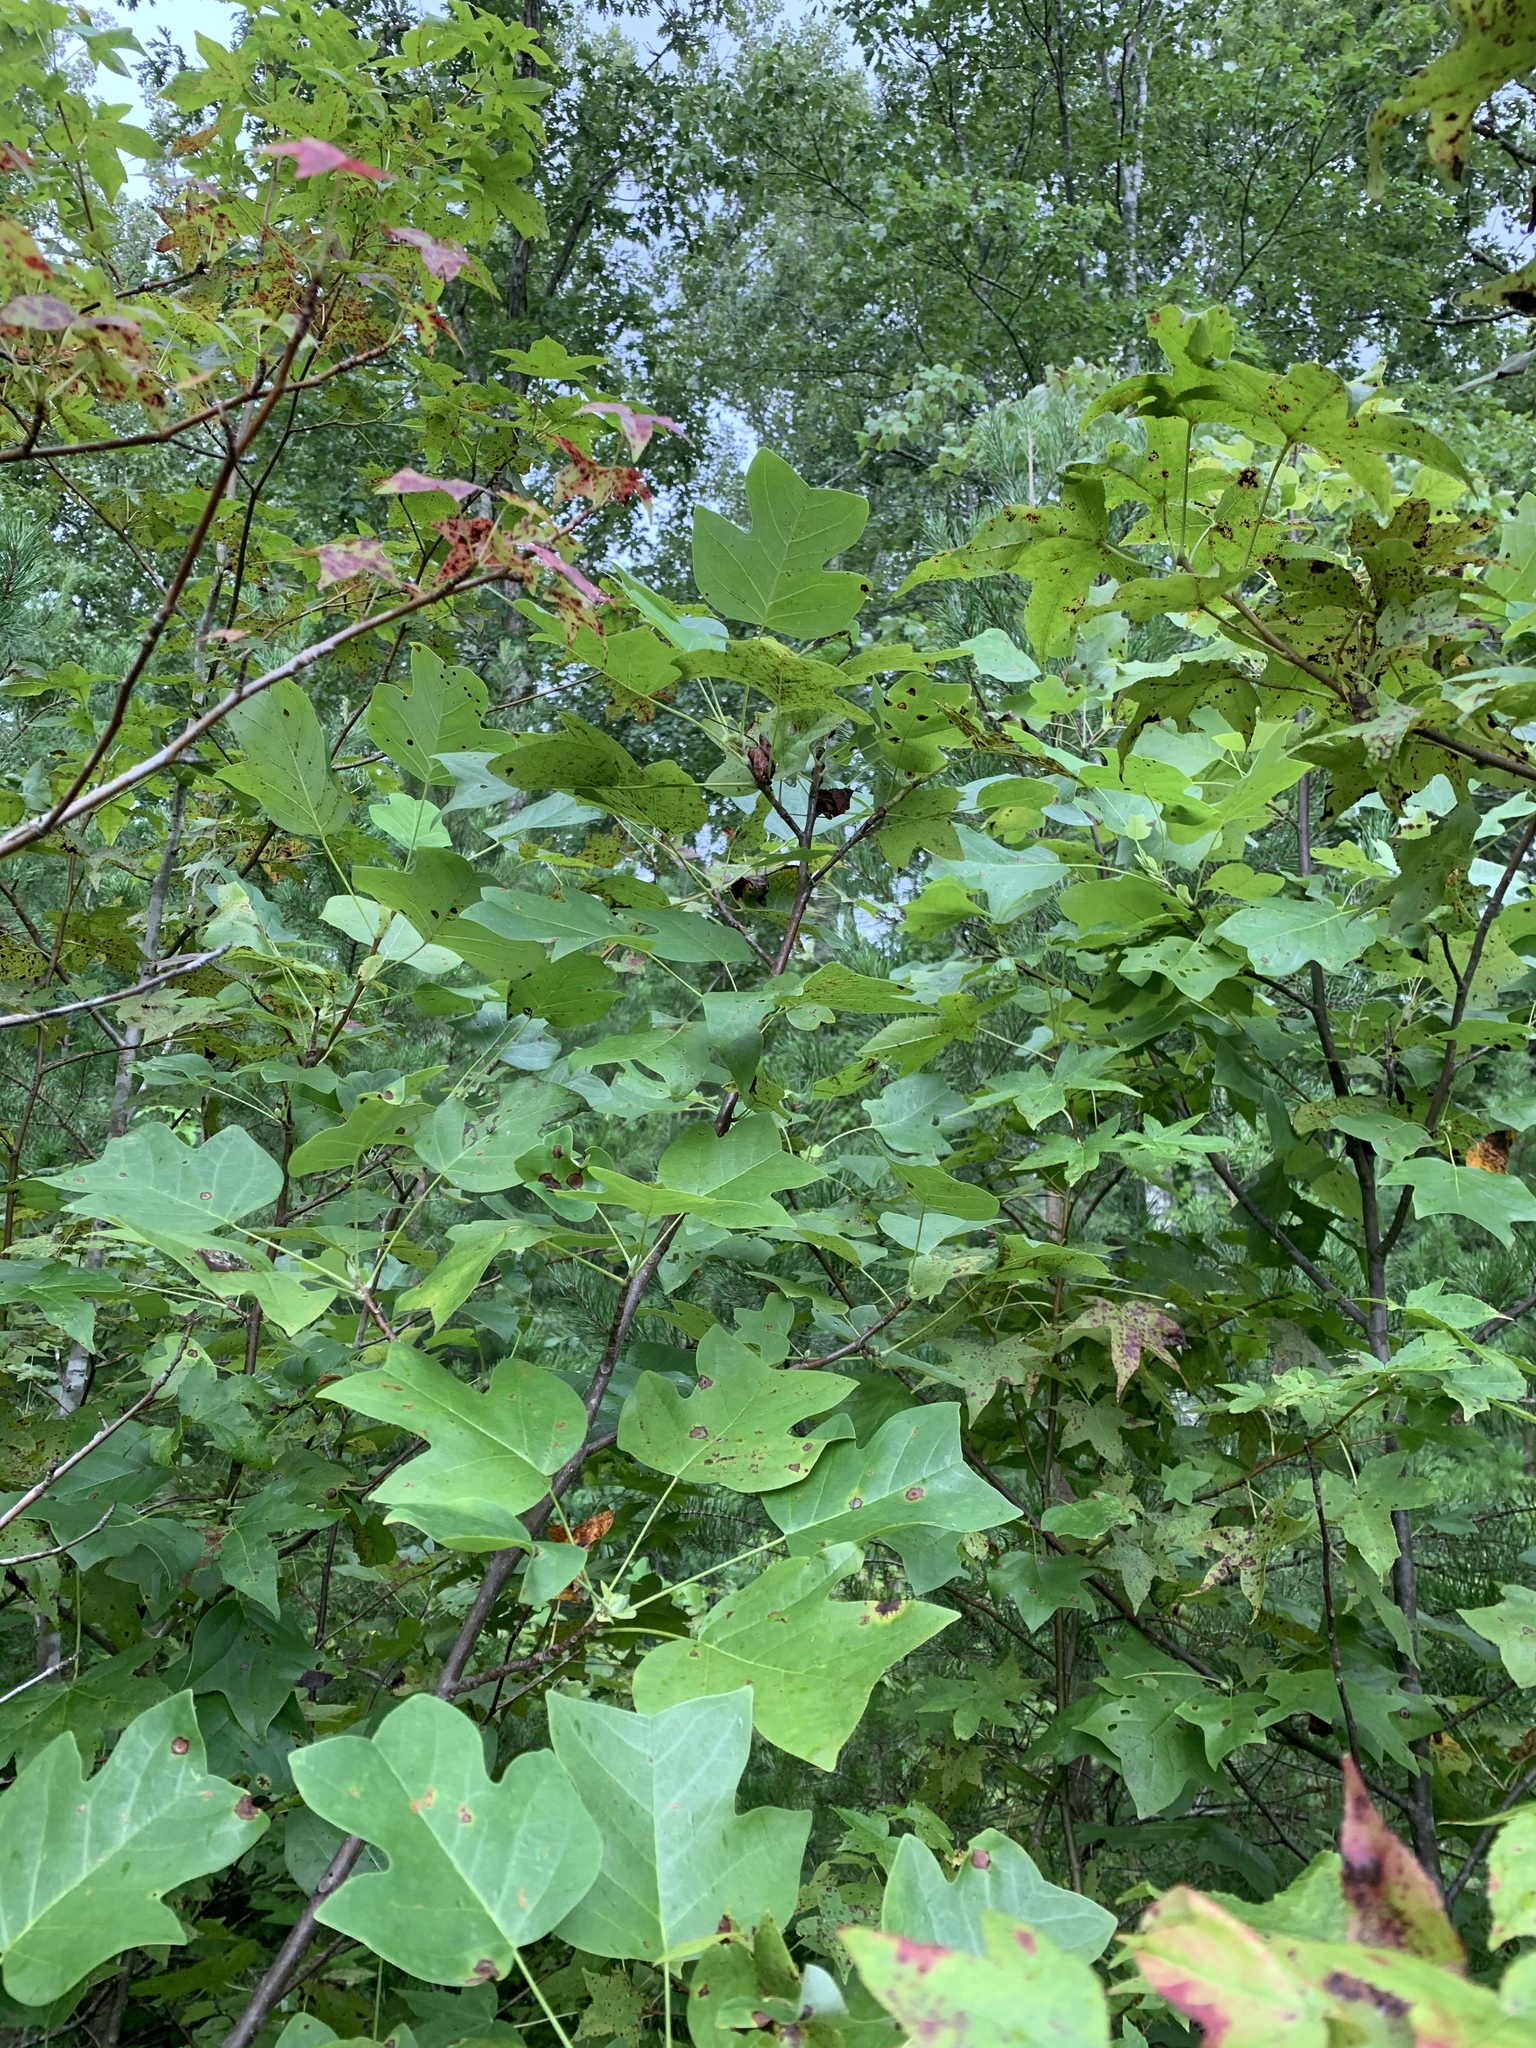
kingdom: Plantae
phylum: Tracheophyta
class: Magnoliopsida
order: Magnoliales
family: Magnoliaceae
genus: Liriodendron
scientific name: Liriodendron tulipifera
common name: Tulip tree
